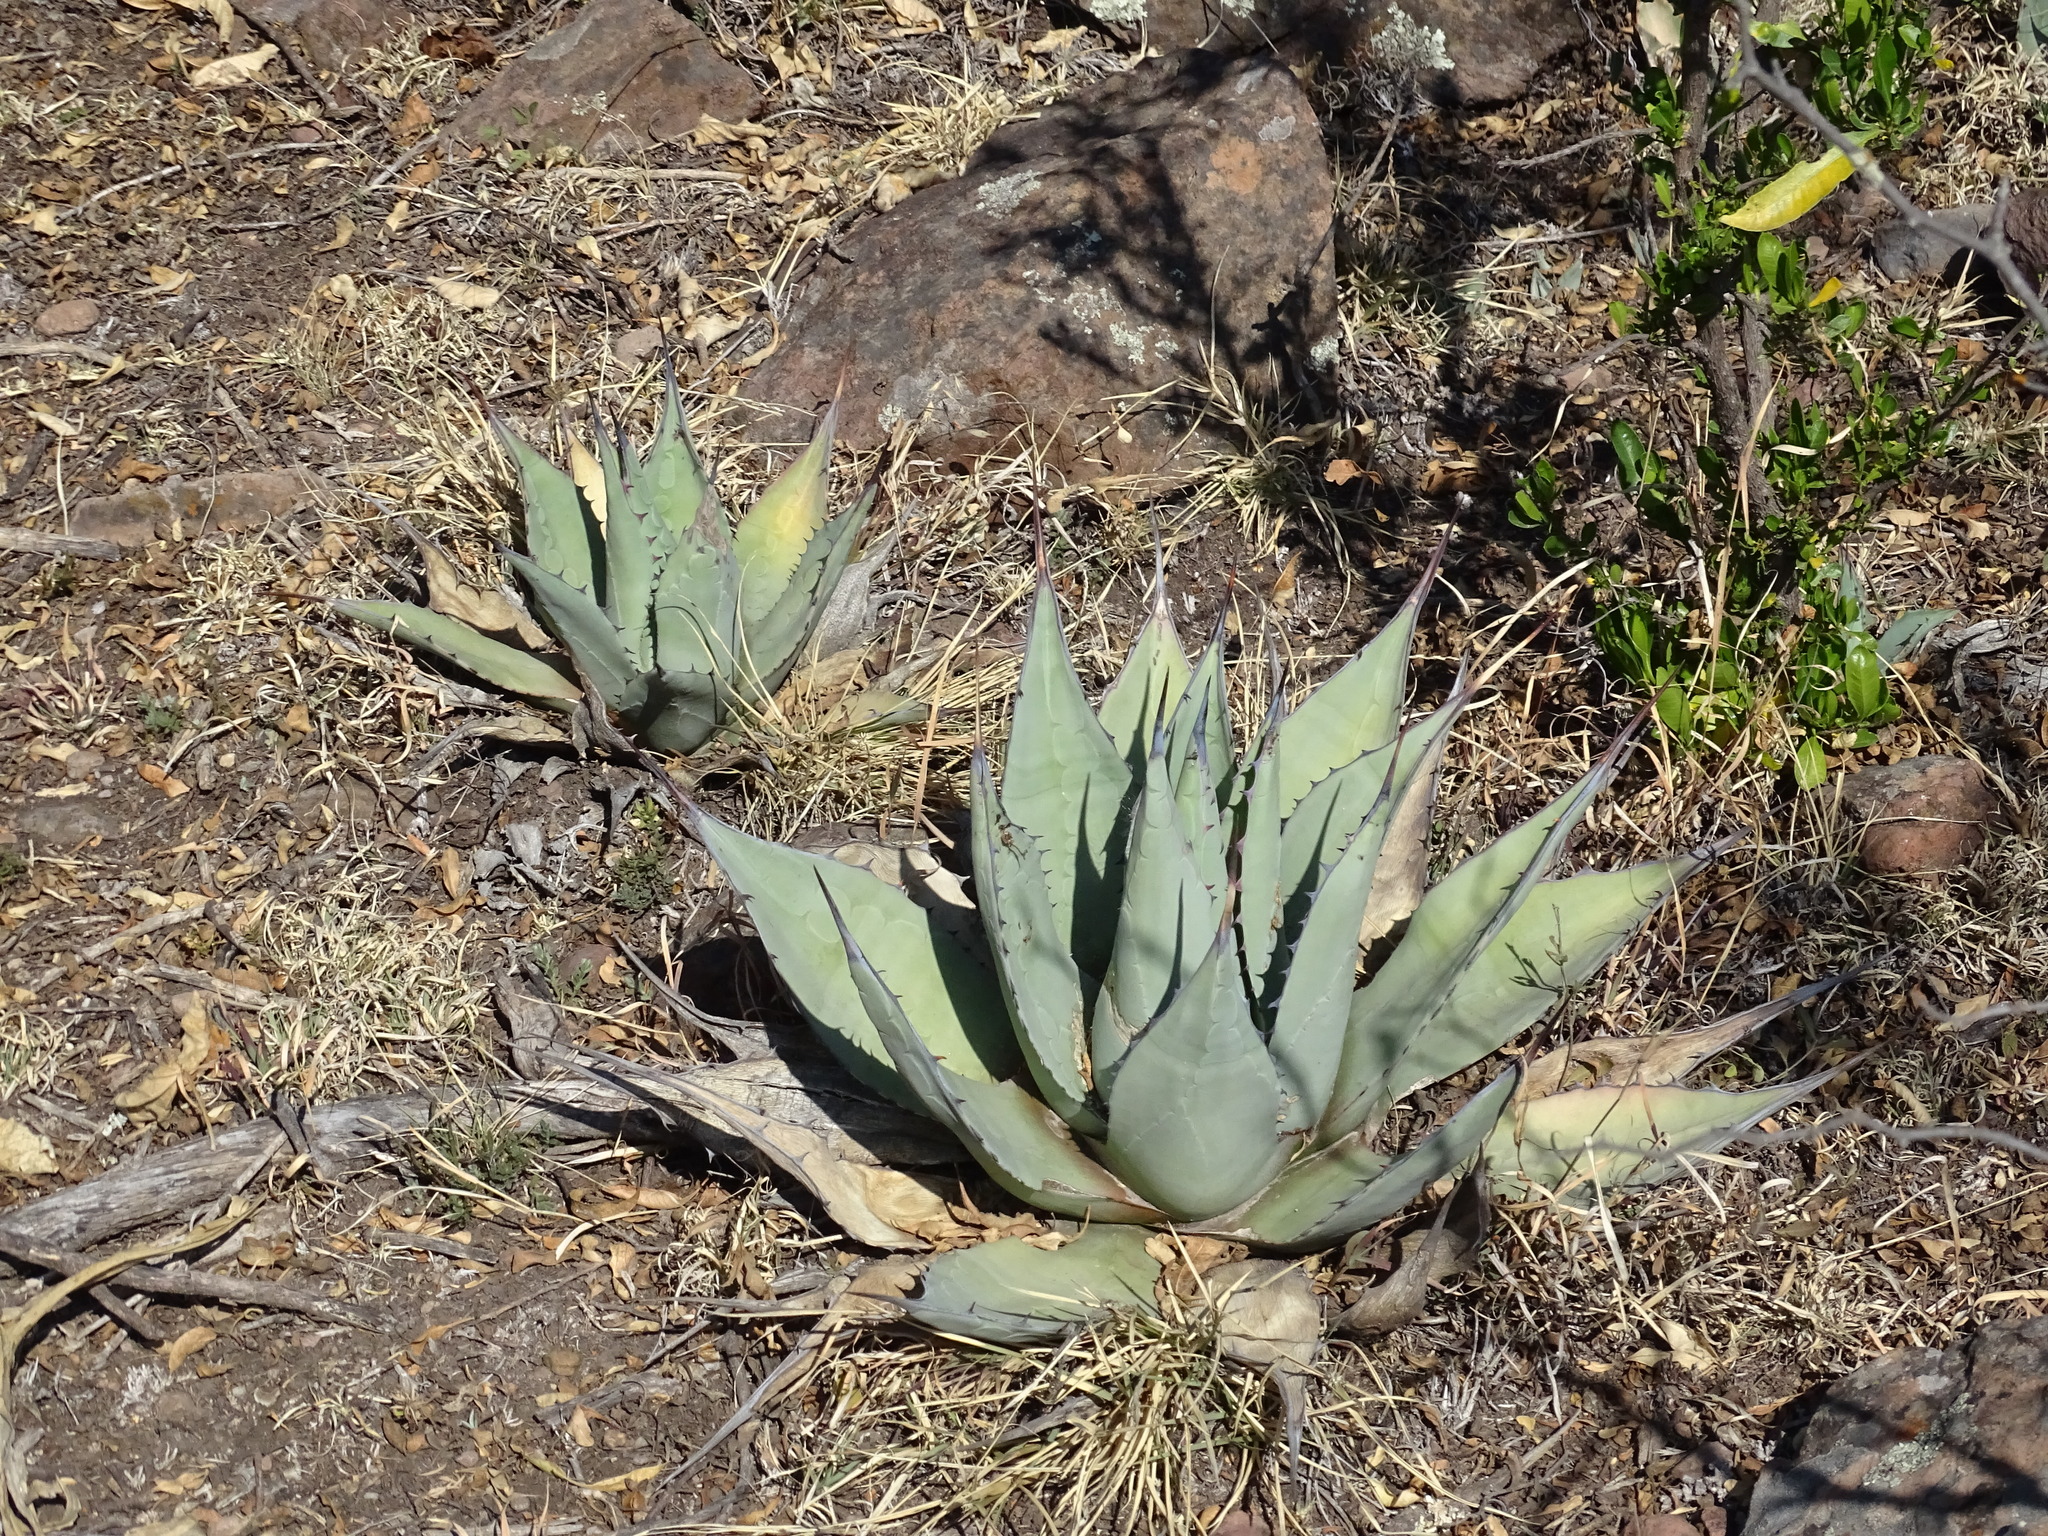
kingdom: Plantae
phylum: Tracheophyta
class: Liliopsida
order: Asparagales
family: Asparagaceae
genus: Agave
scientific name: Agave applanata
